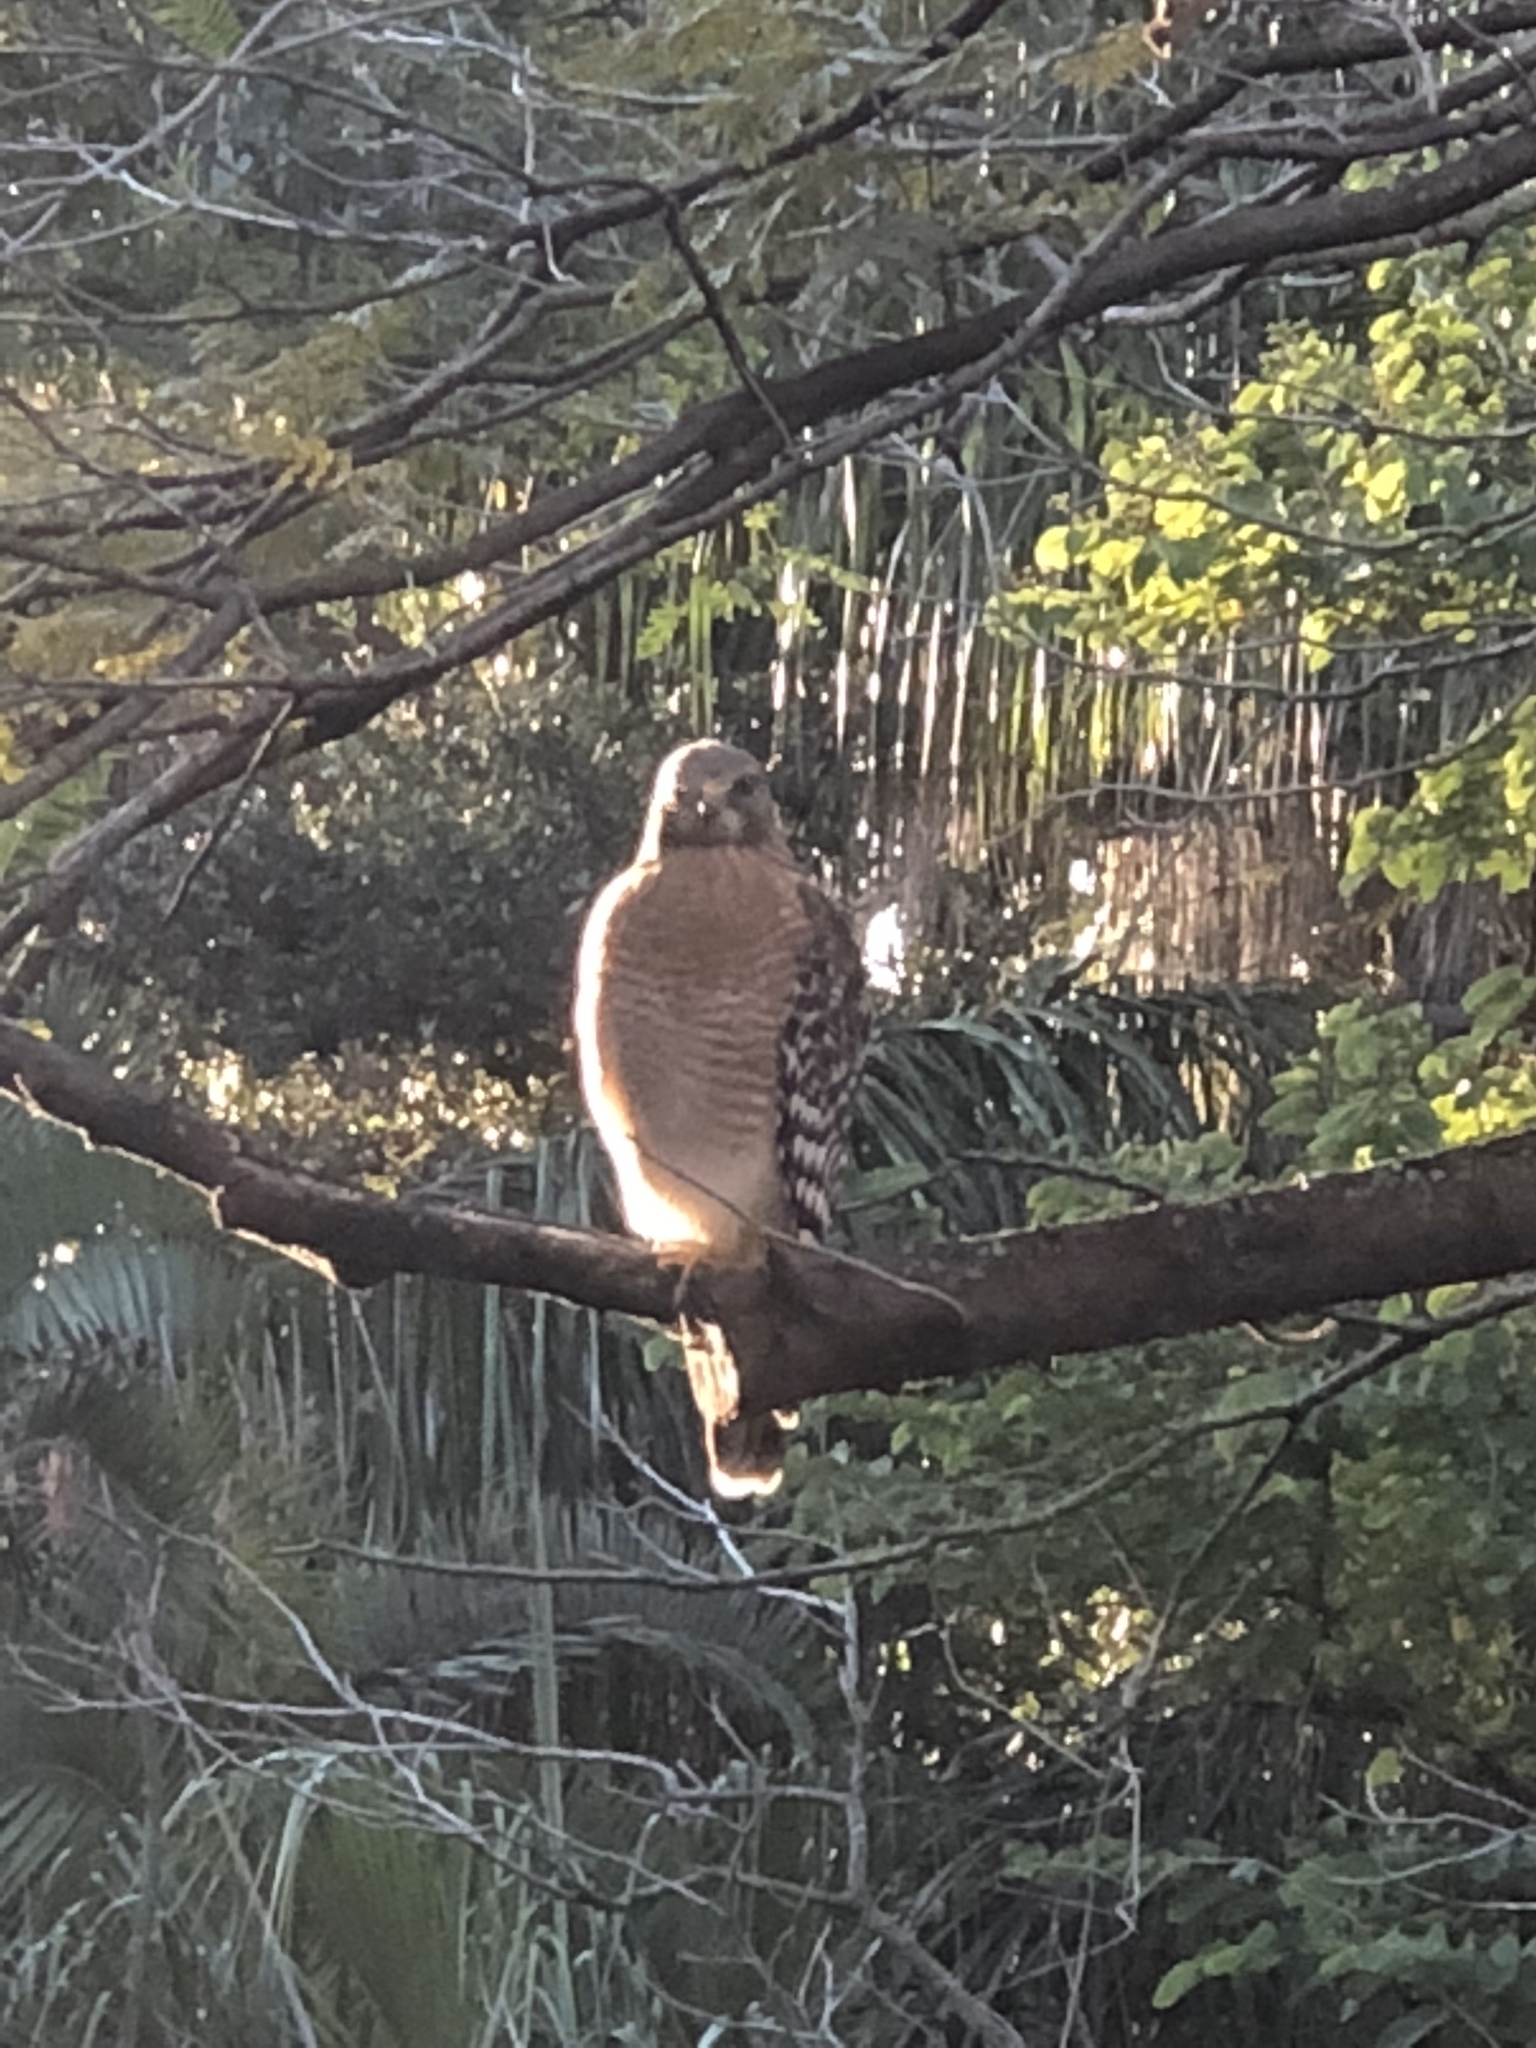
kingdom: Animalia
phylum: Chordata
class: Aves
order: Accipitriformes
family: Accipitridae
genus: Buteo
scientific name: Buteo lineatus
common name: Red-shouldered hawk
